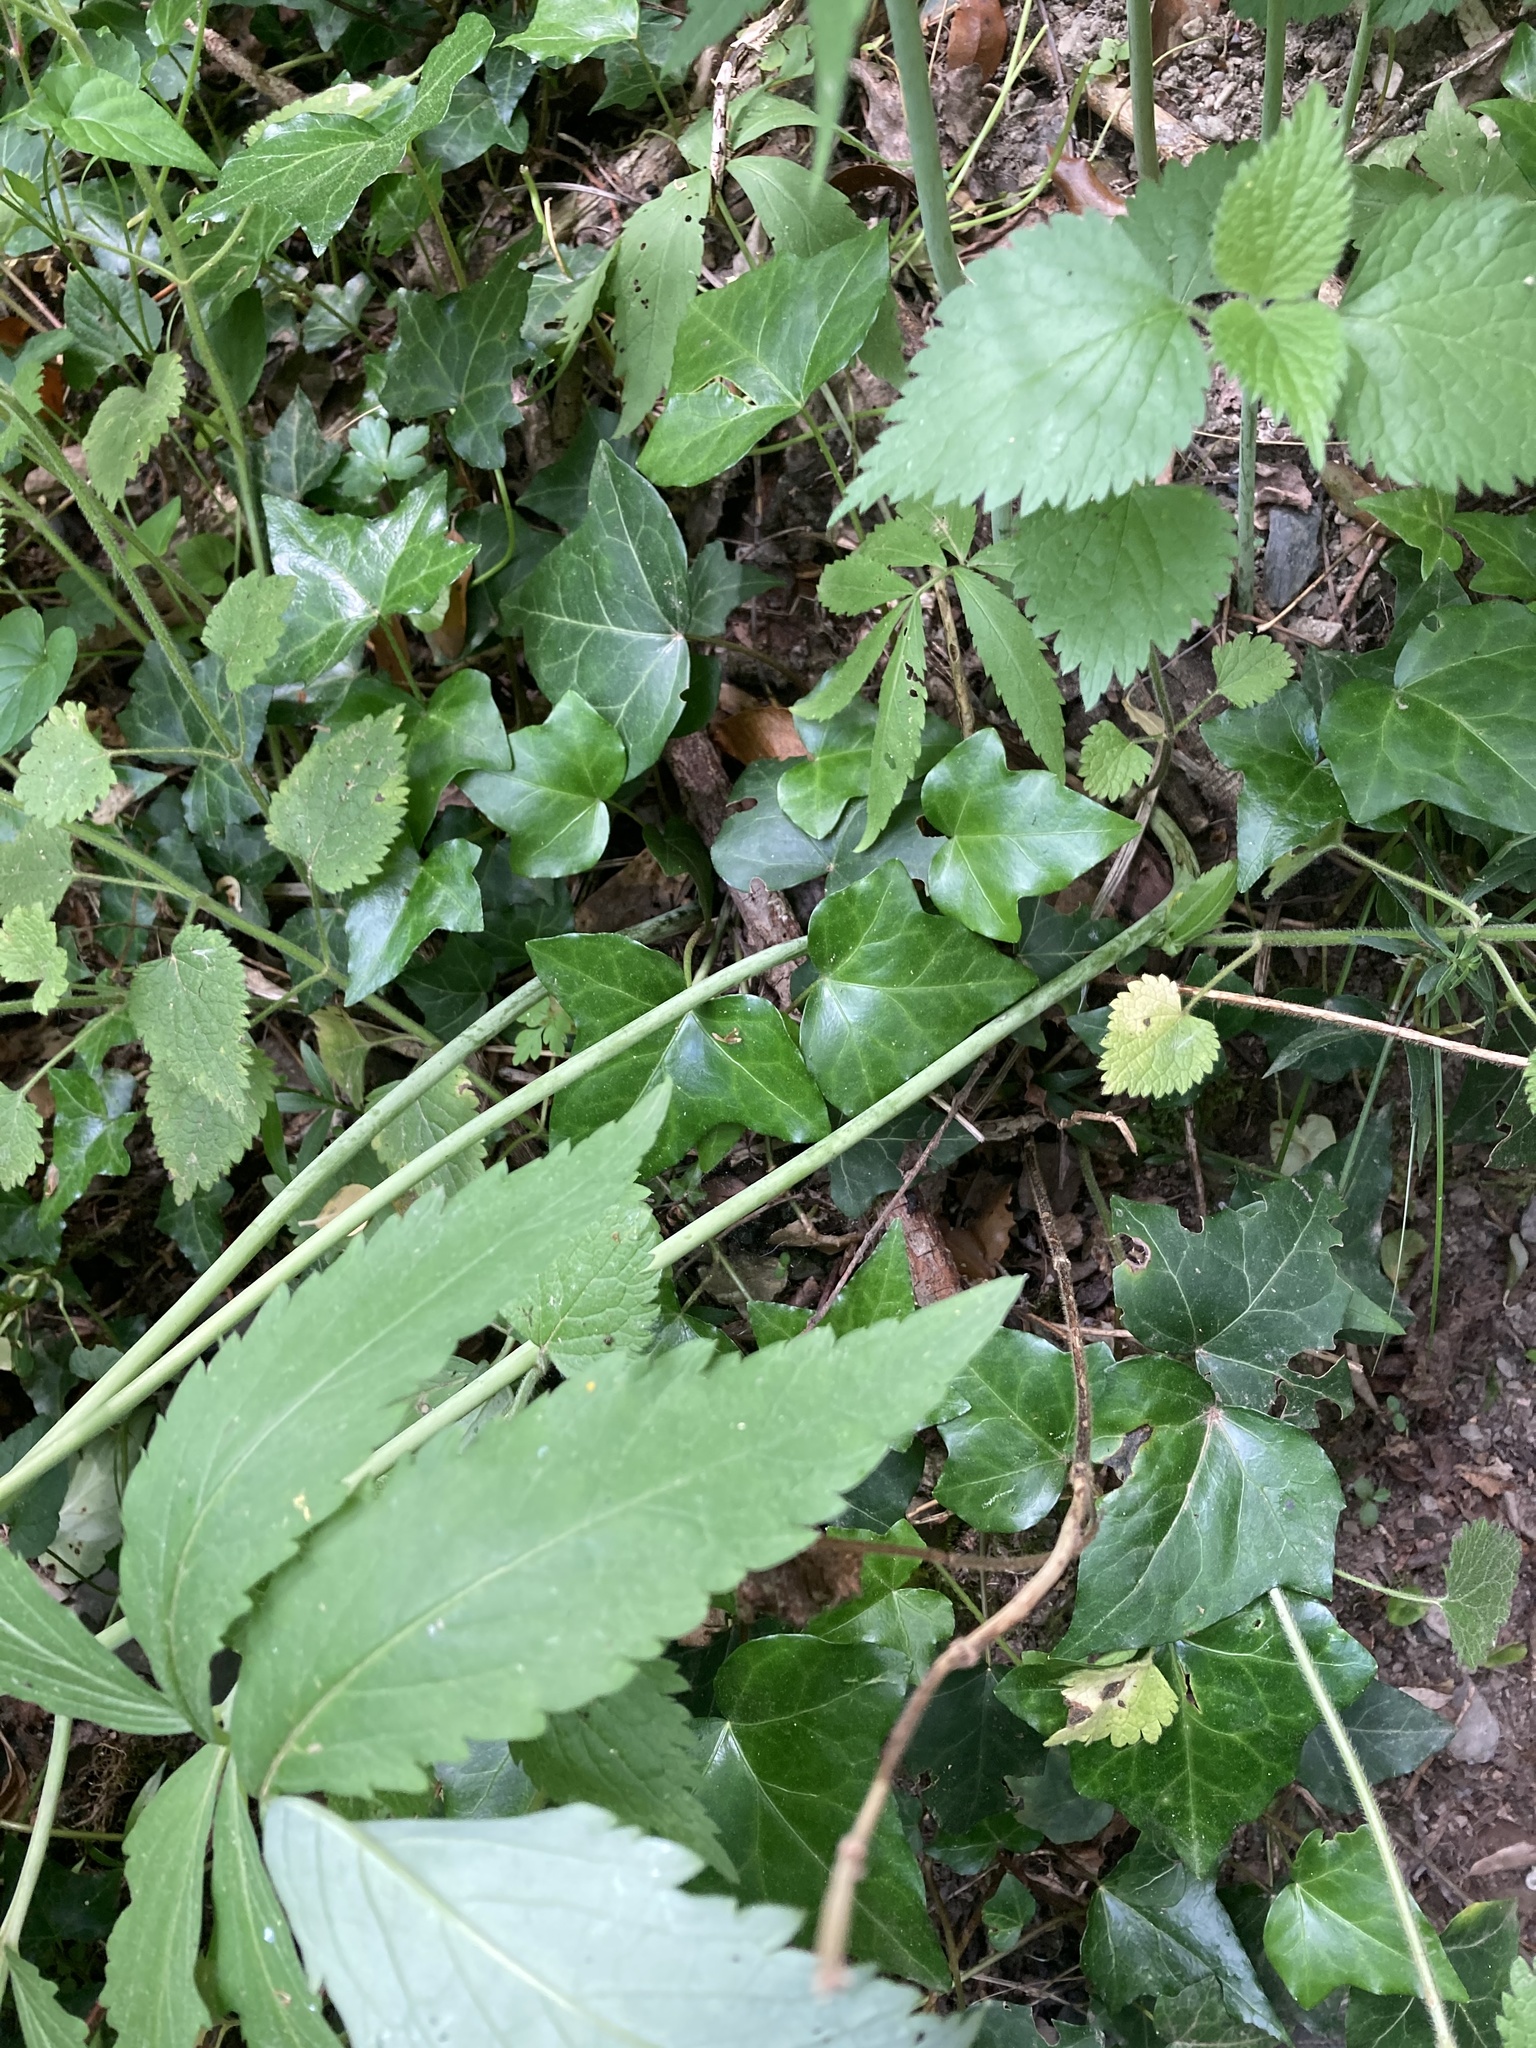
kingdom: Plantae
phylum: Tracheophyta
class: Magnoliopsida
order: Brassicales
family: Brassicaceae
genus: Cardamine
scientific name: Cardamine heptaphylla
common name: Pinnate coralroot
